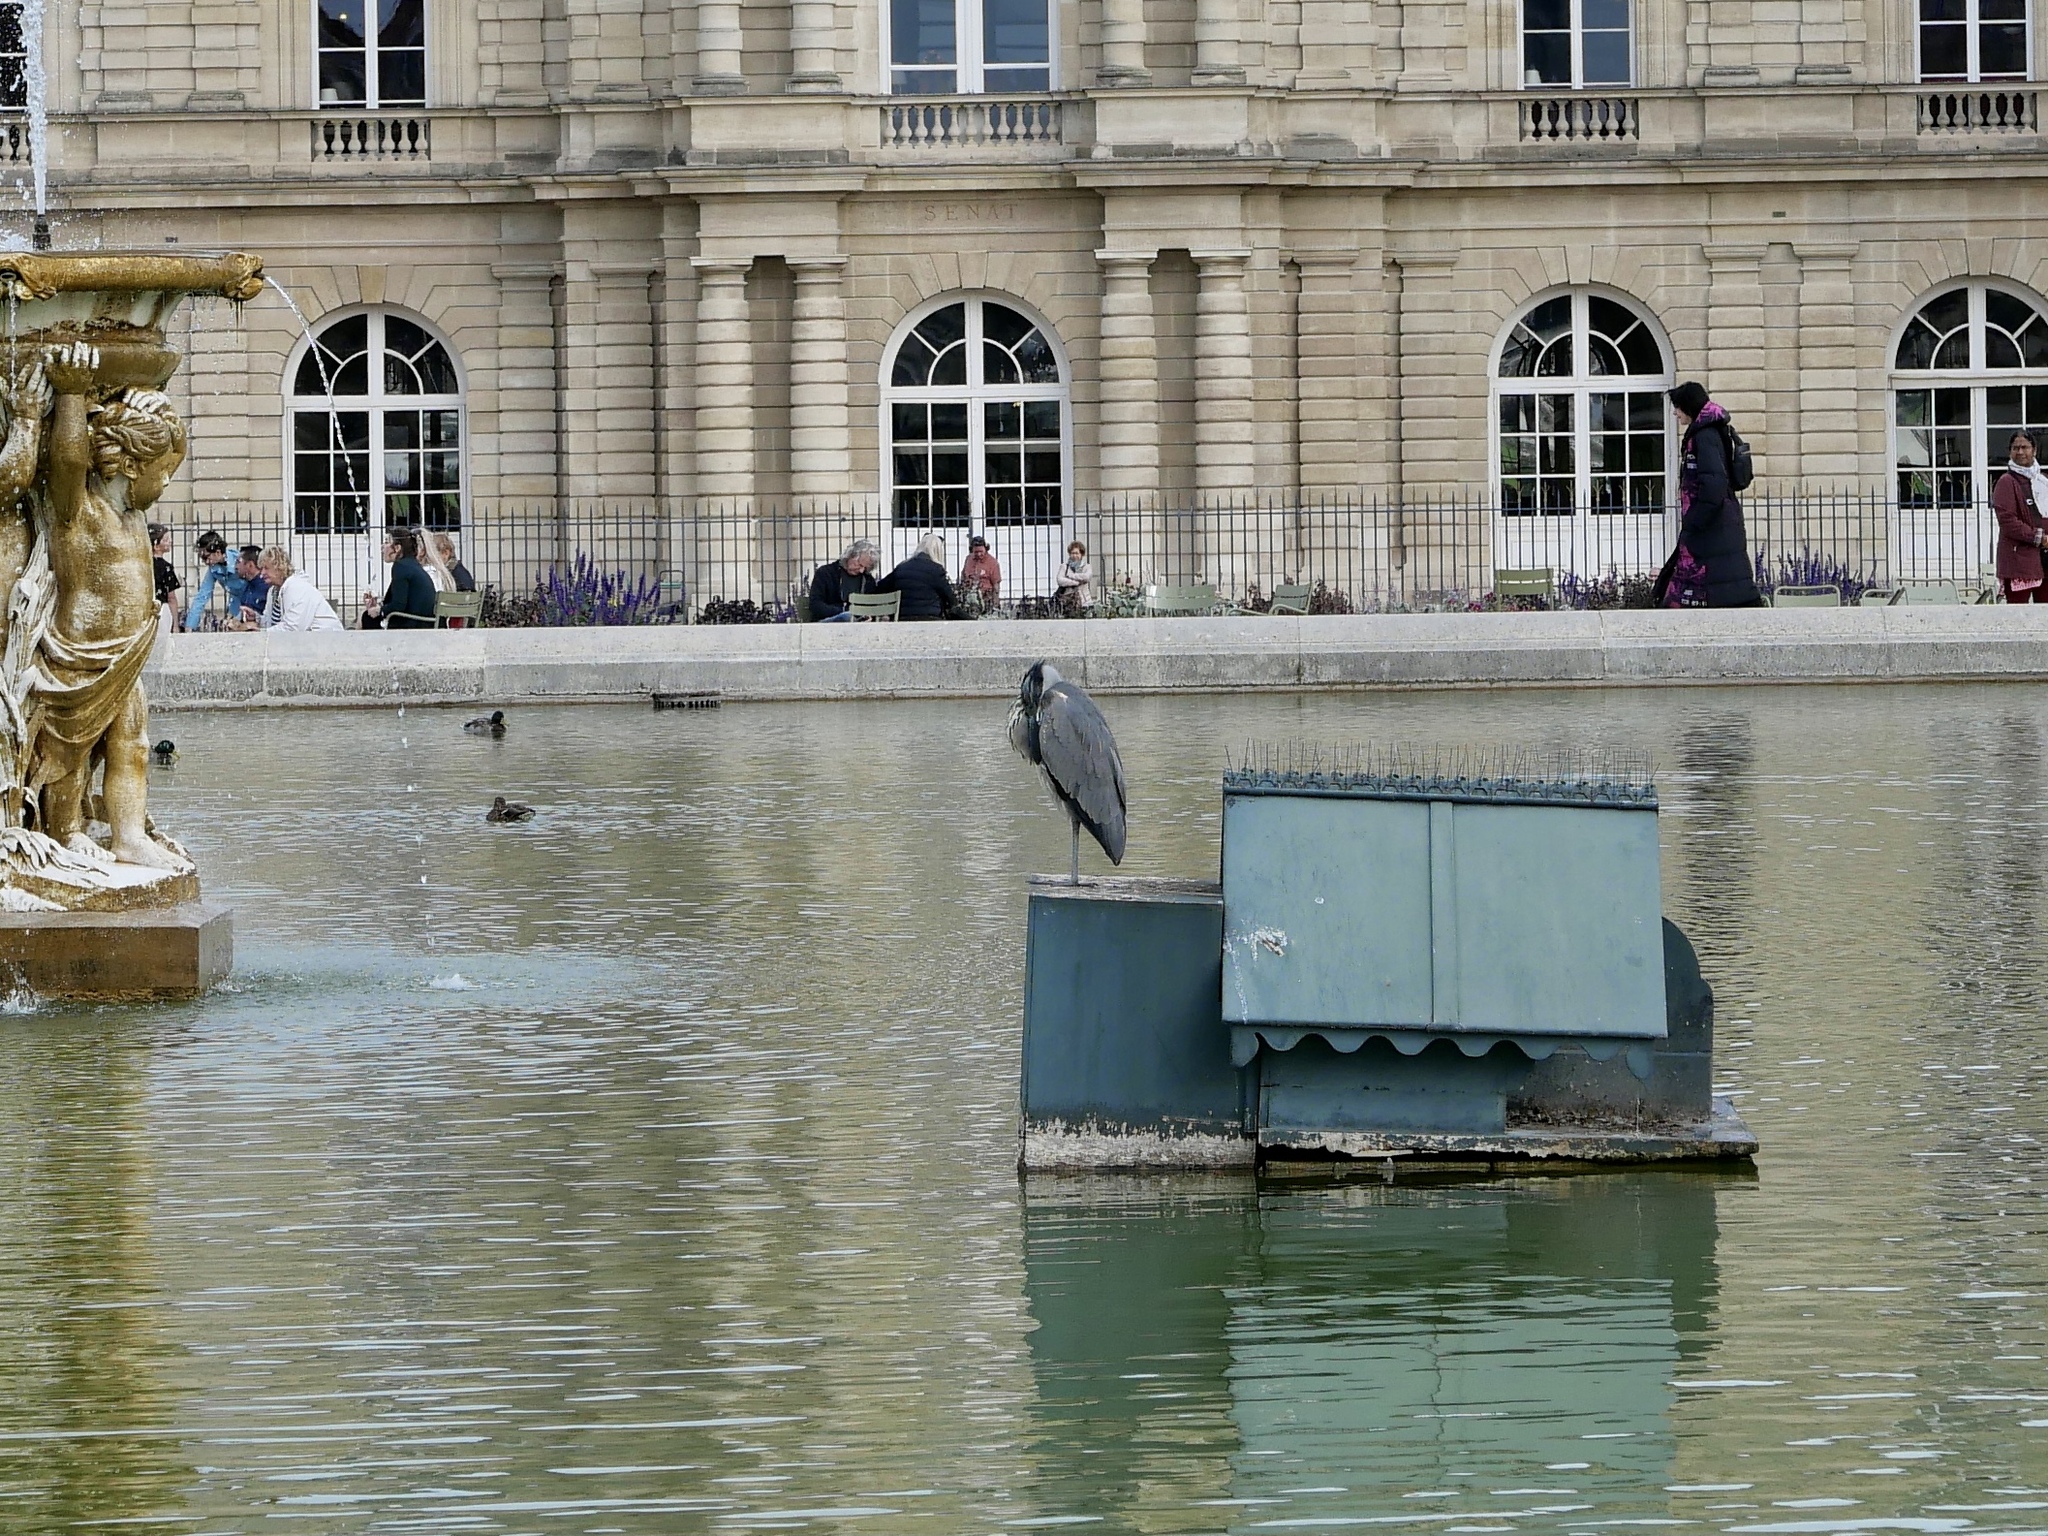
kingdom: Animalia
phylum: Chordata
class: Aves
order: Pelecaniformes
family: Ardeidae
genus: Ardea
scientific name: Ardea cinerea
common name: Grey heron
